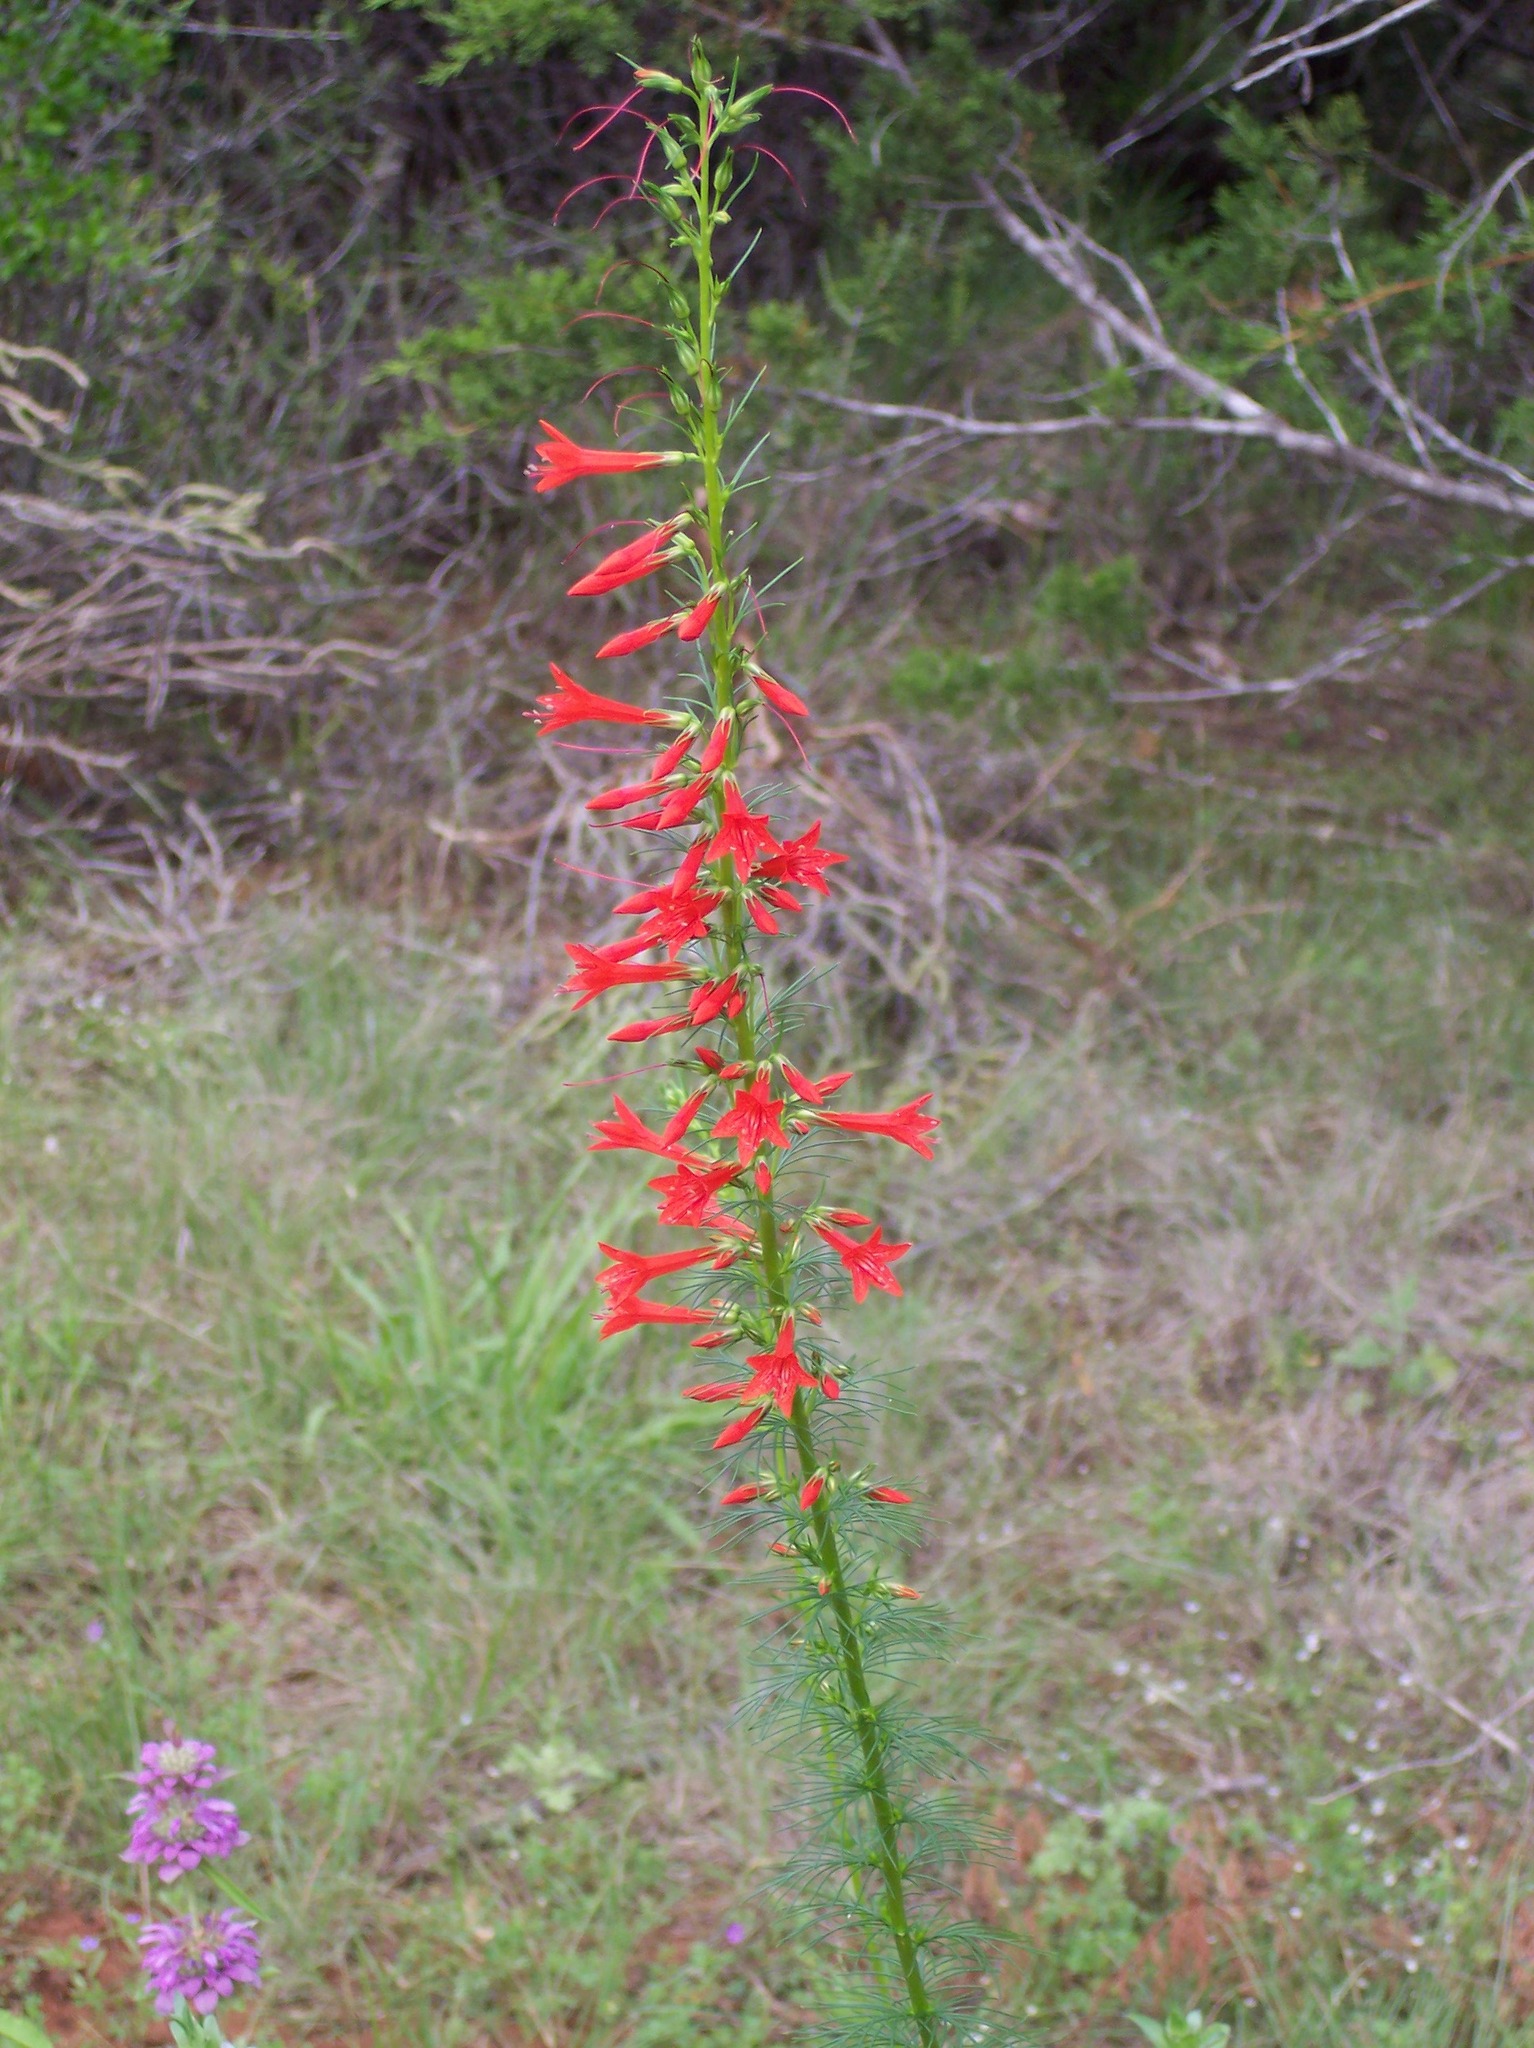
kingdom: Plantae
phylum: Tracheophyta
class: Magnoliopsida
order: Ericales
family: Polemoniaceae
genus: Ipomopsis
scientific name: Ipomopsis rubra
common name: Skyrocket
